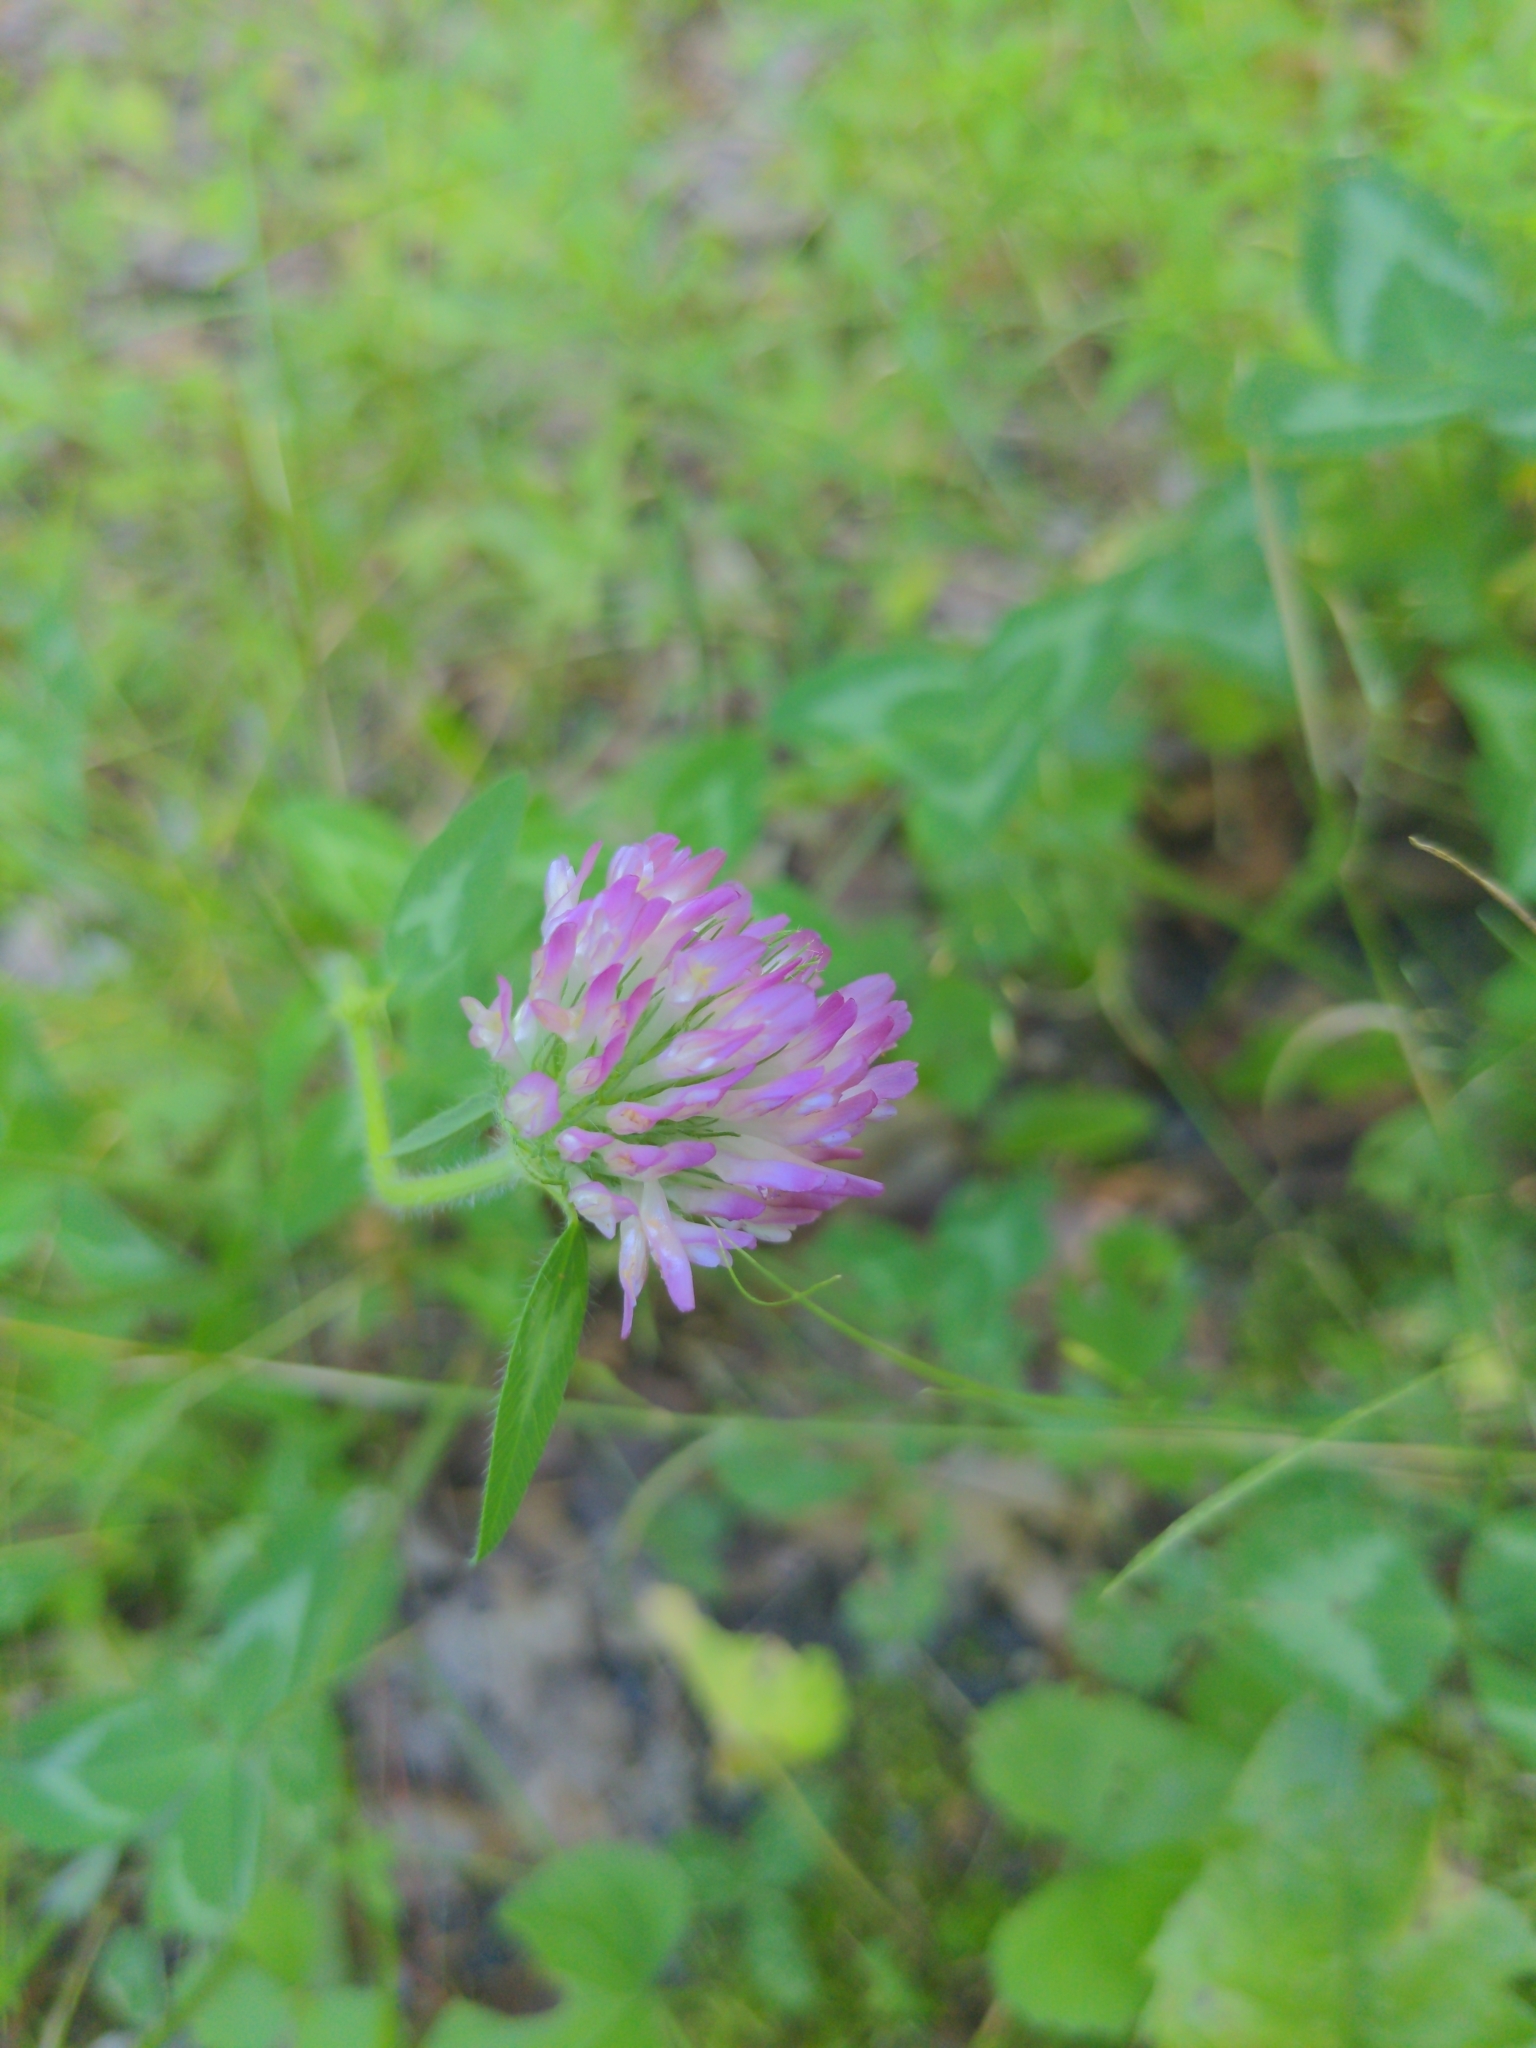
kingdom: Plantae
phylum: Tracheophyta
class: Magnoliopsida
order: Fabales
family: Fabaceae
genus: Trifolium
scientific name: Trifolium pratense
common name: Red clover
